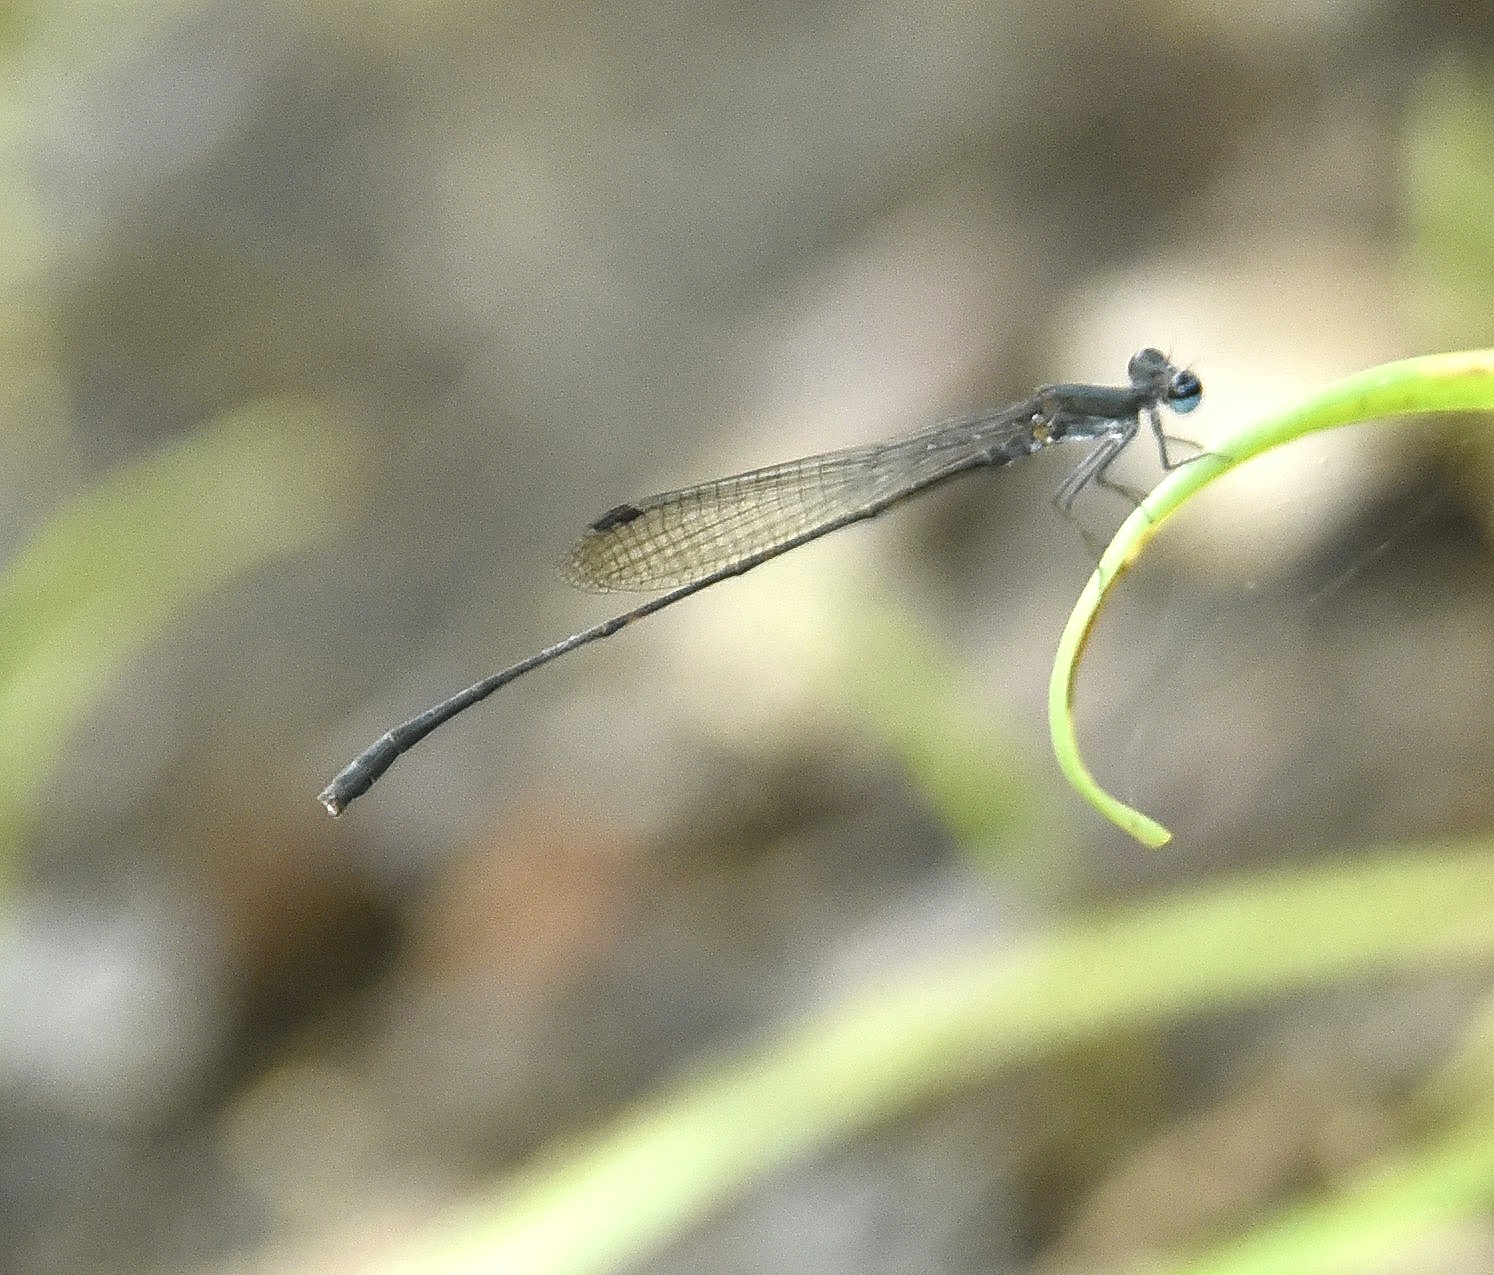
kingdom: Animalia
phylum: Arthropoda
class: Insecta
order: Odonata
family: Platycnemididae
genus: Elattoneura
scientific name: Elattoneura tetrica
